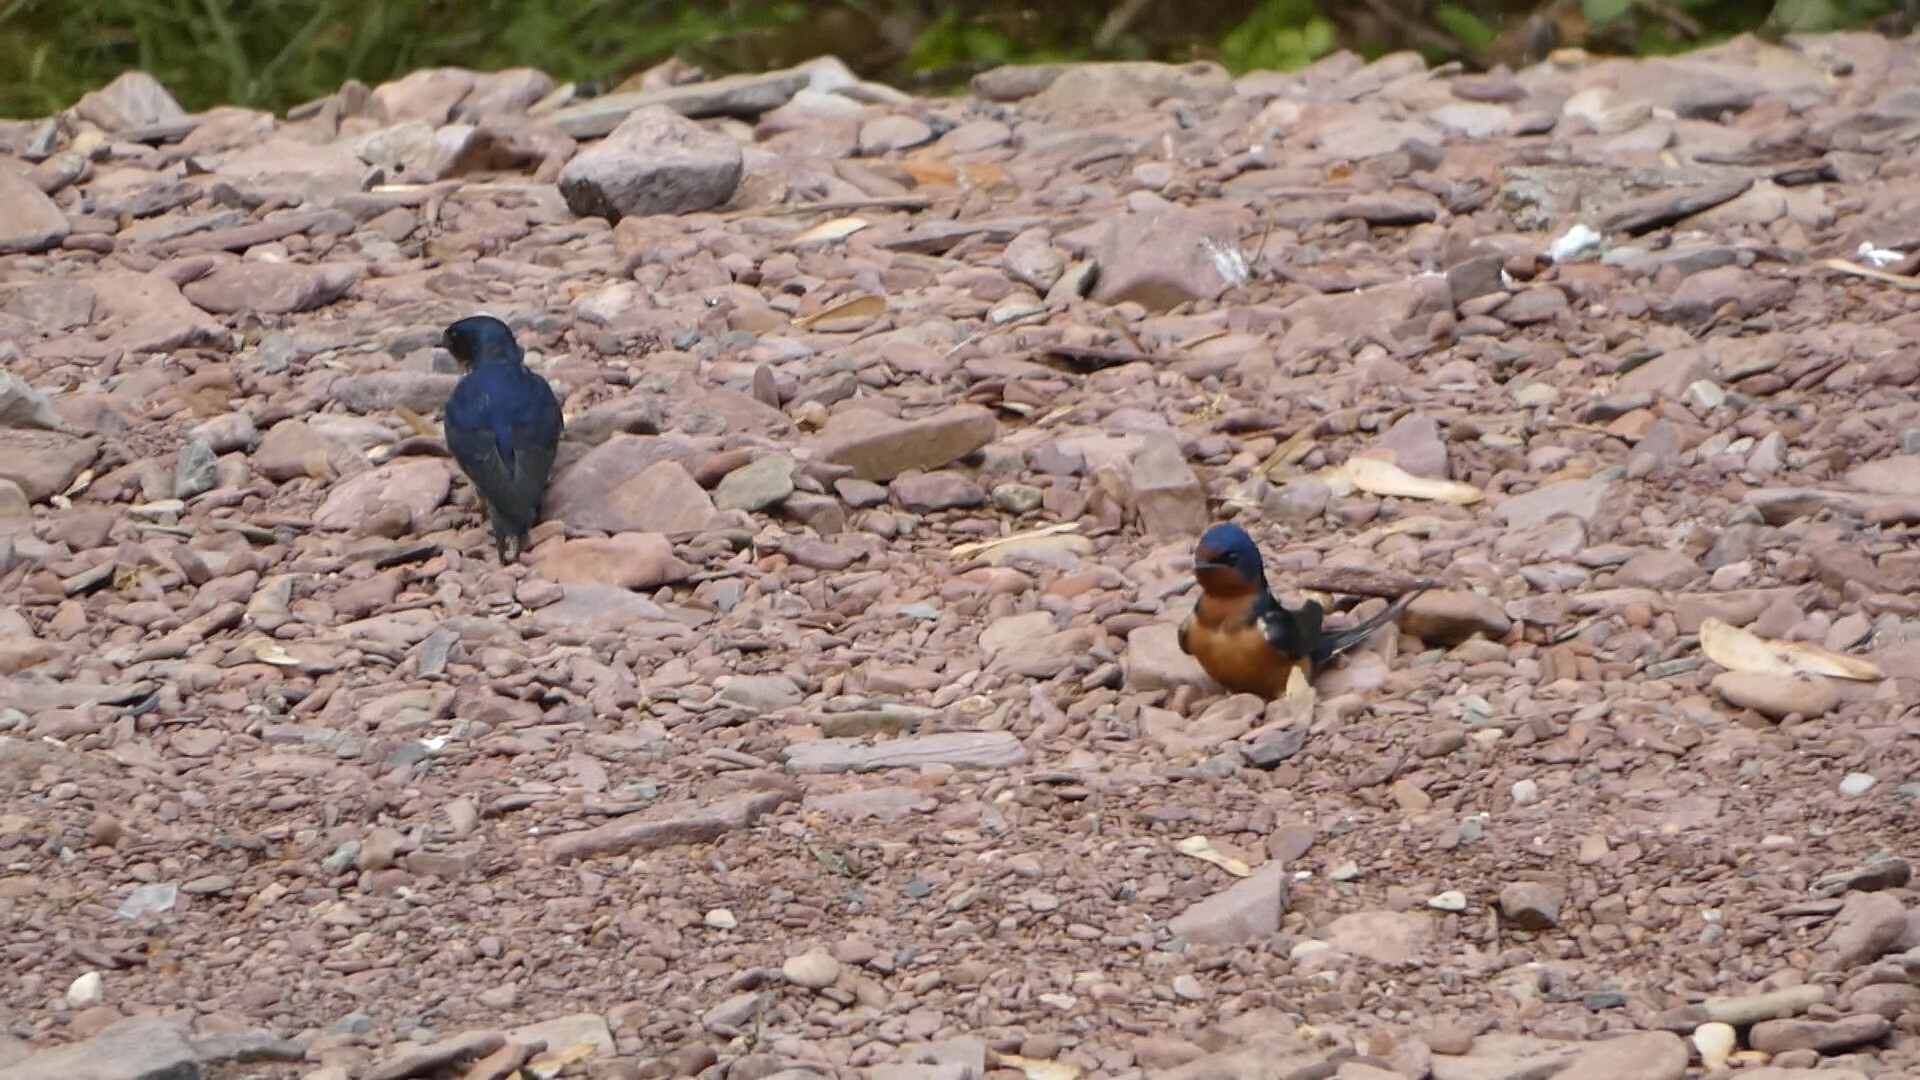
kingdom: Animalia
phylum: Chordata
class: Aves
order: Passeriformes
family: Hirundinidae
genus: Hirundo
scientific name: Hirundo rustica
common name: Barn swallow
